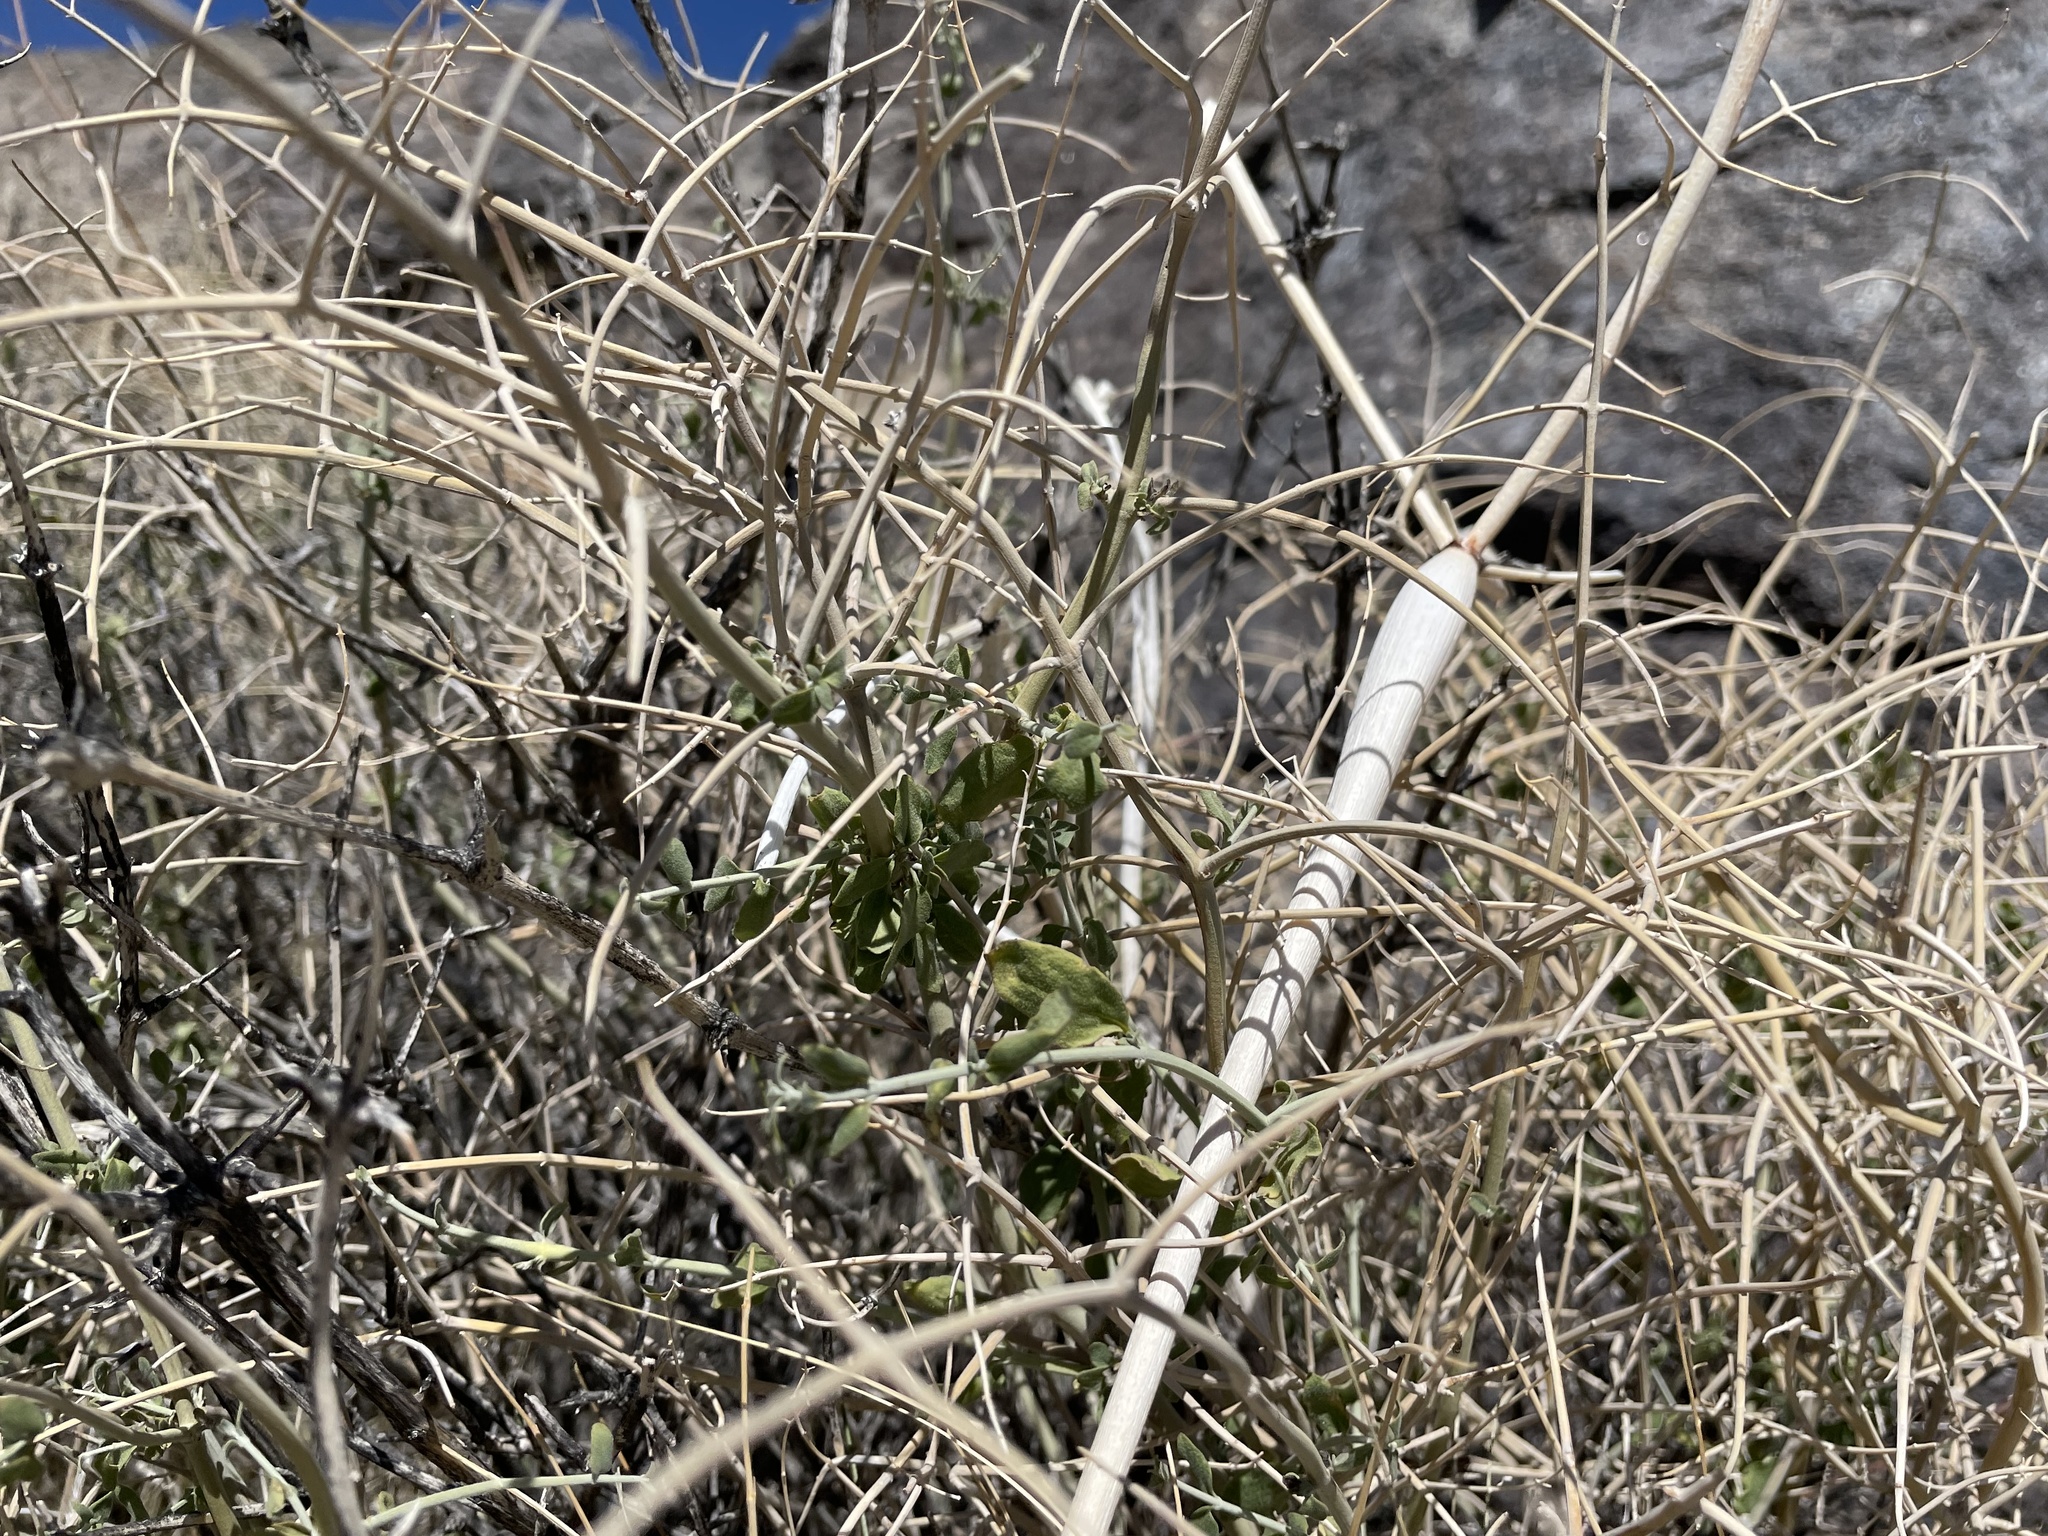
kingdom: Plantae
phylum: Tracheophyta
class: Magnoliopsida
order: Lamiales
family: Lamiaceae
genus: Scutellaria
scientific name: Scutellaria mexicana
